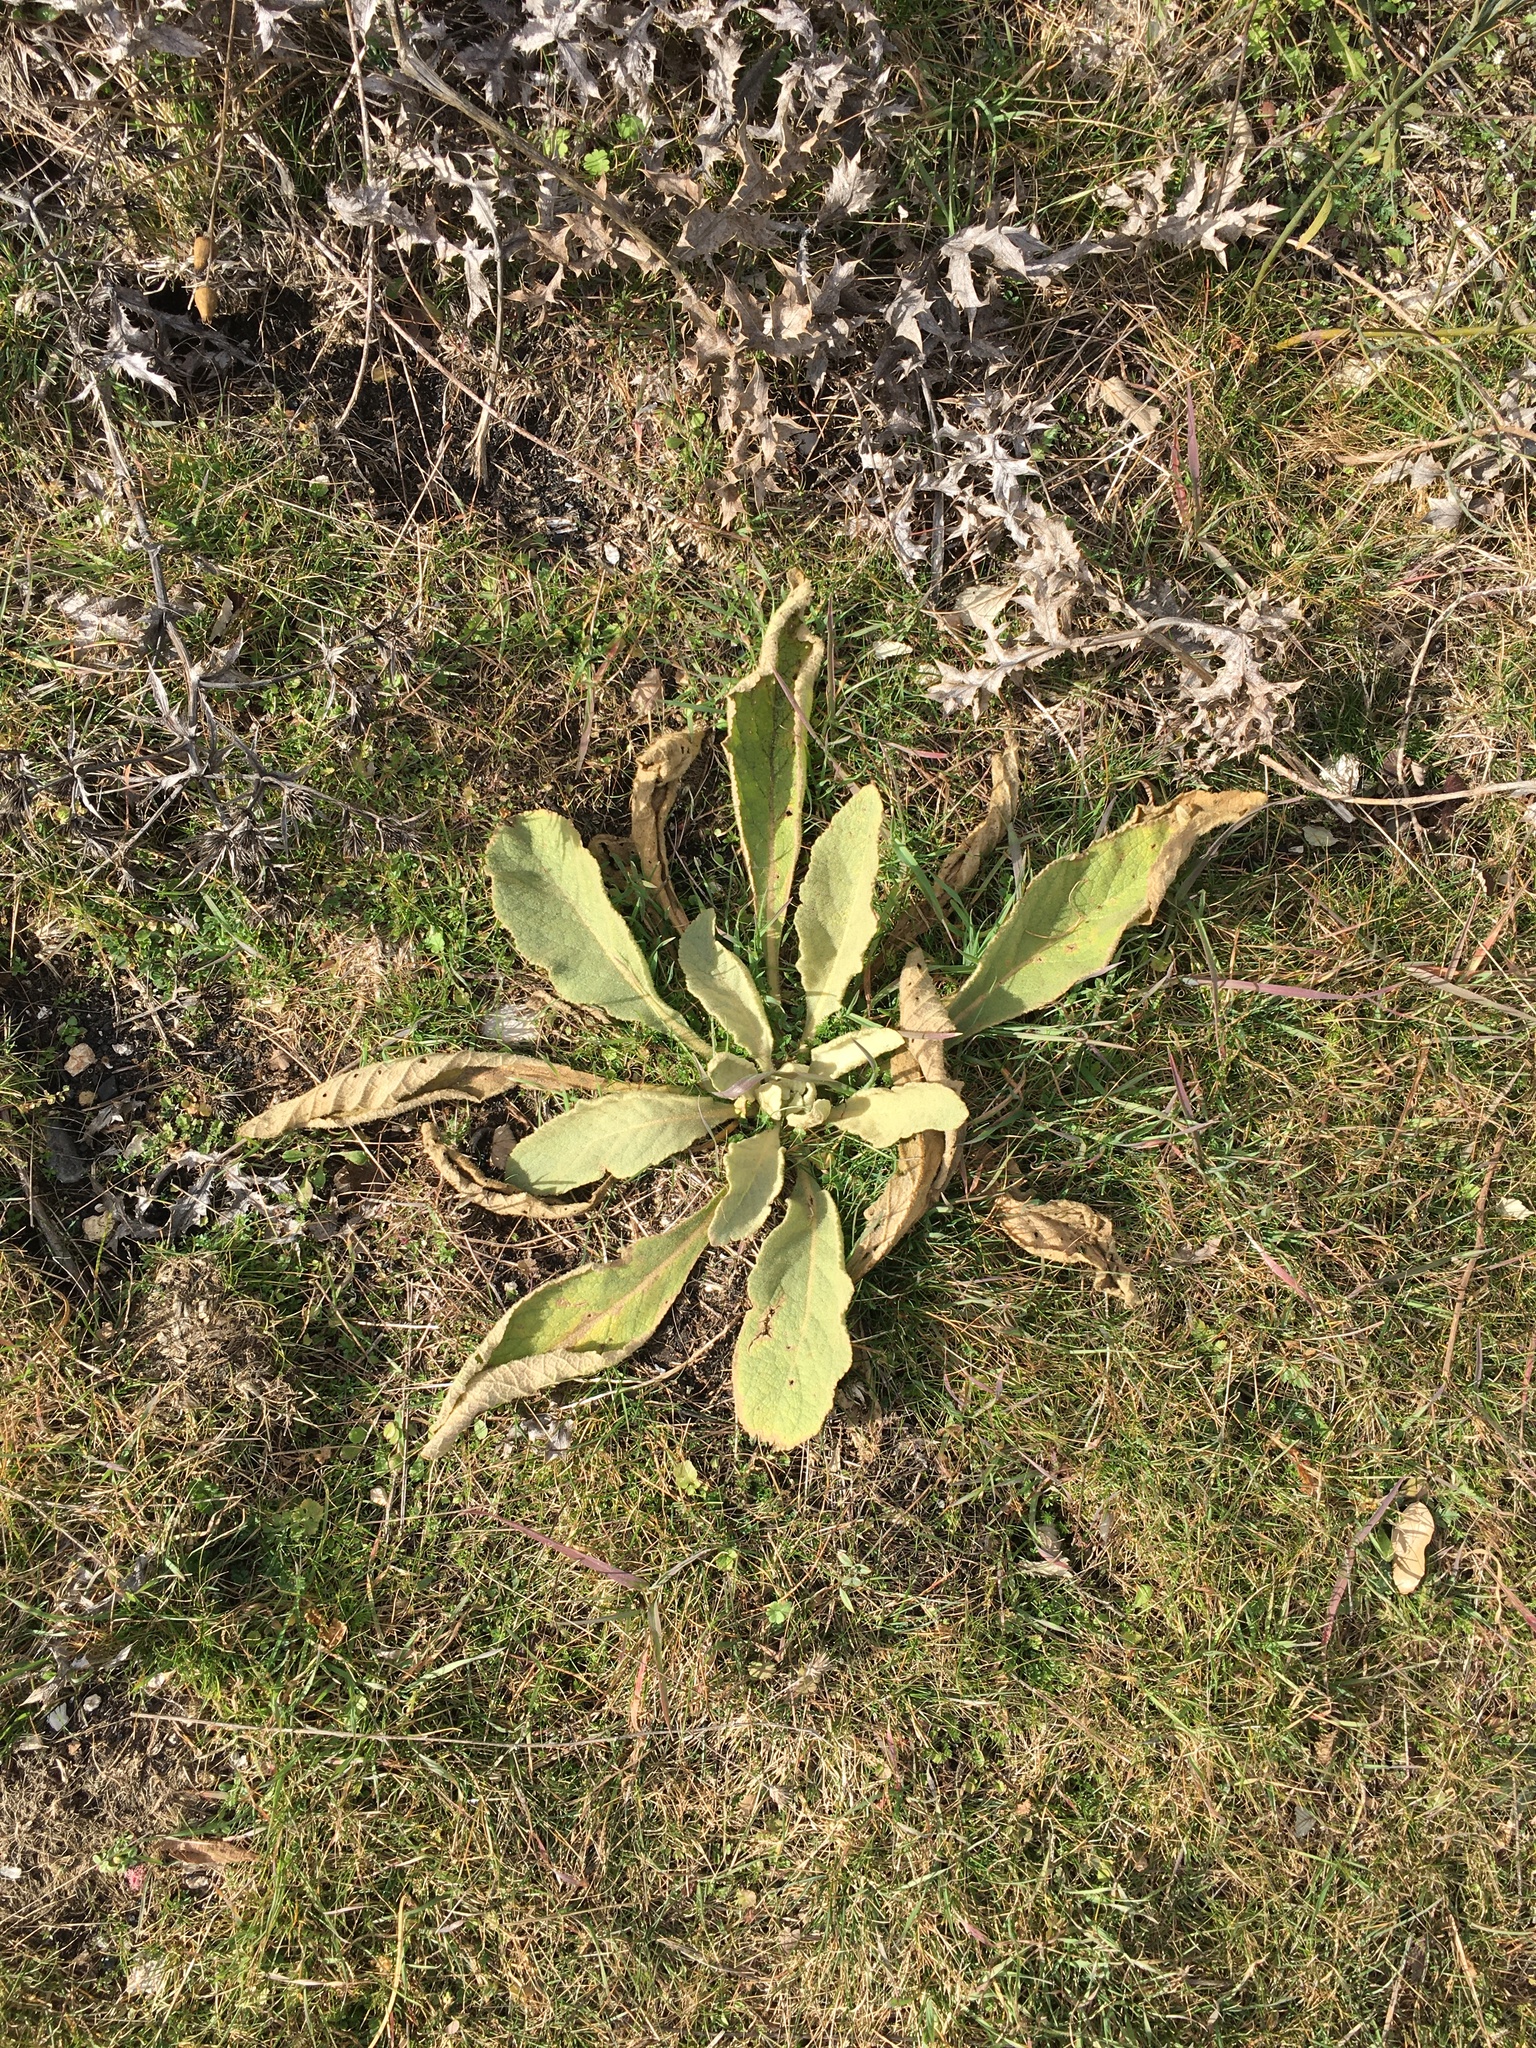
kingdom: Plantae
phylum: Tracheophyta
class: Magnoliopsida
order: Lamiales
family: Scrophulariaceae
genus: Verbascum
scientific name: Verbascum thapsus
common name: Common mullein
